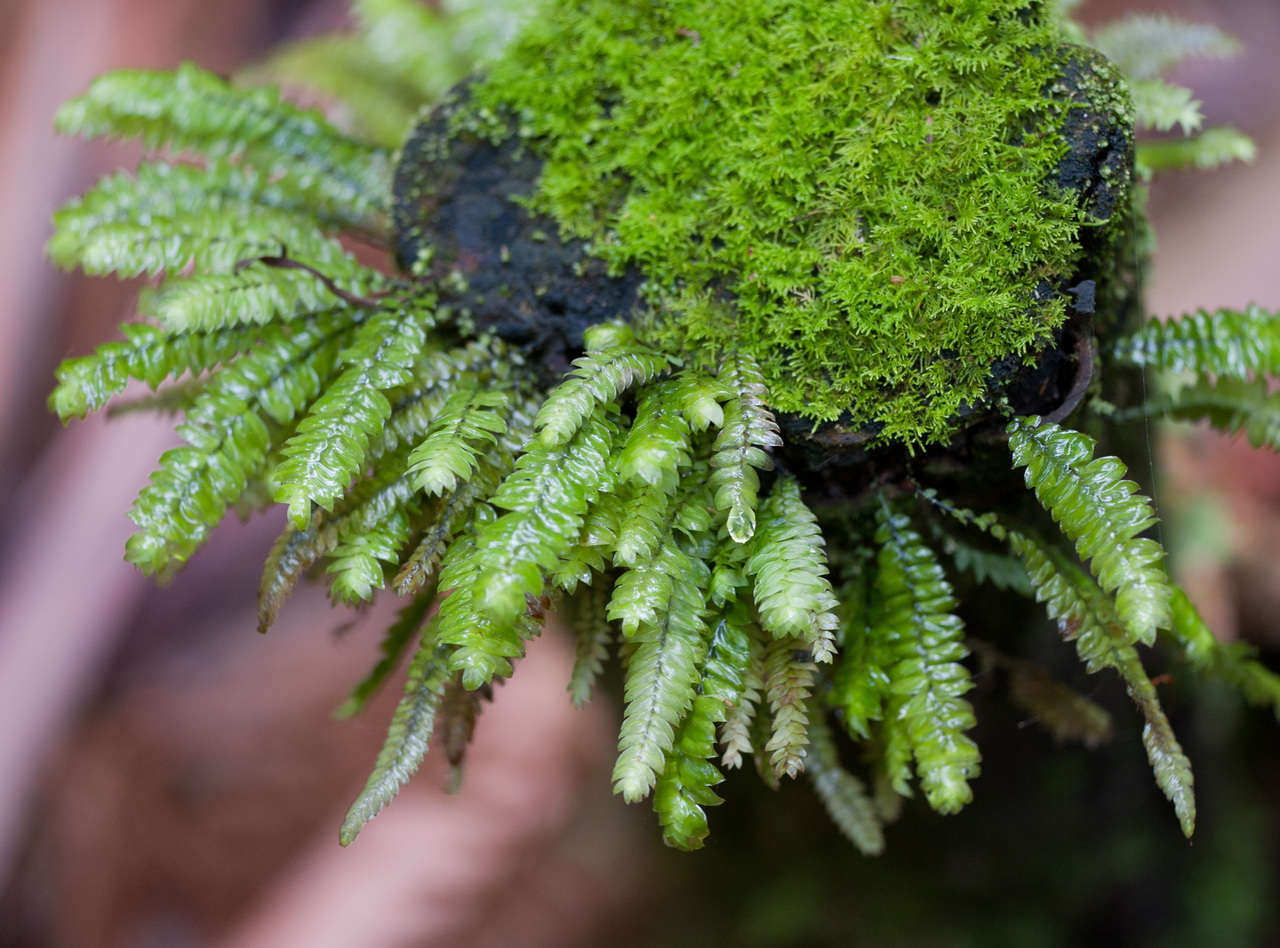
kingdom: Plantae
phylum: Bryophyta
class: Bryopsida
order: Hypopterygiales
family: Hypopterygiaceae
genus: Cyathophorum
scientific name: Cyathophorum bulbosum
